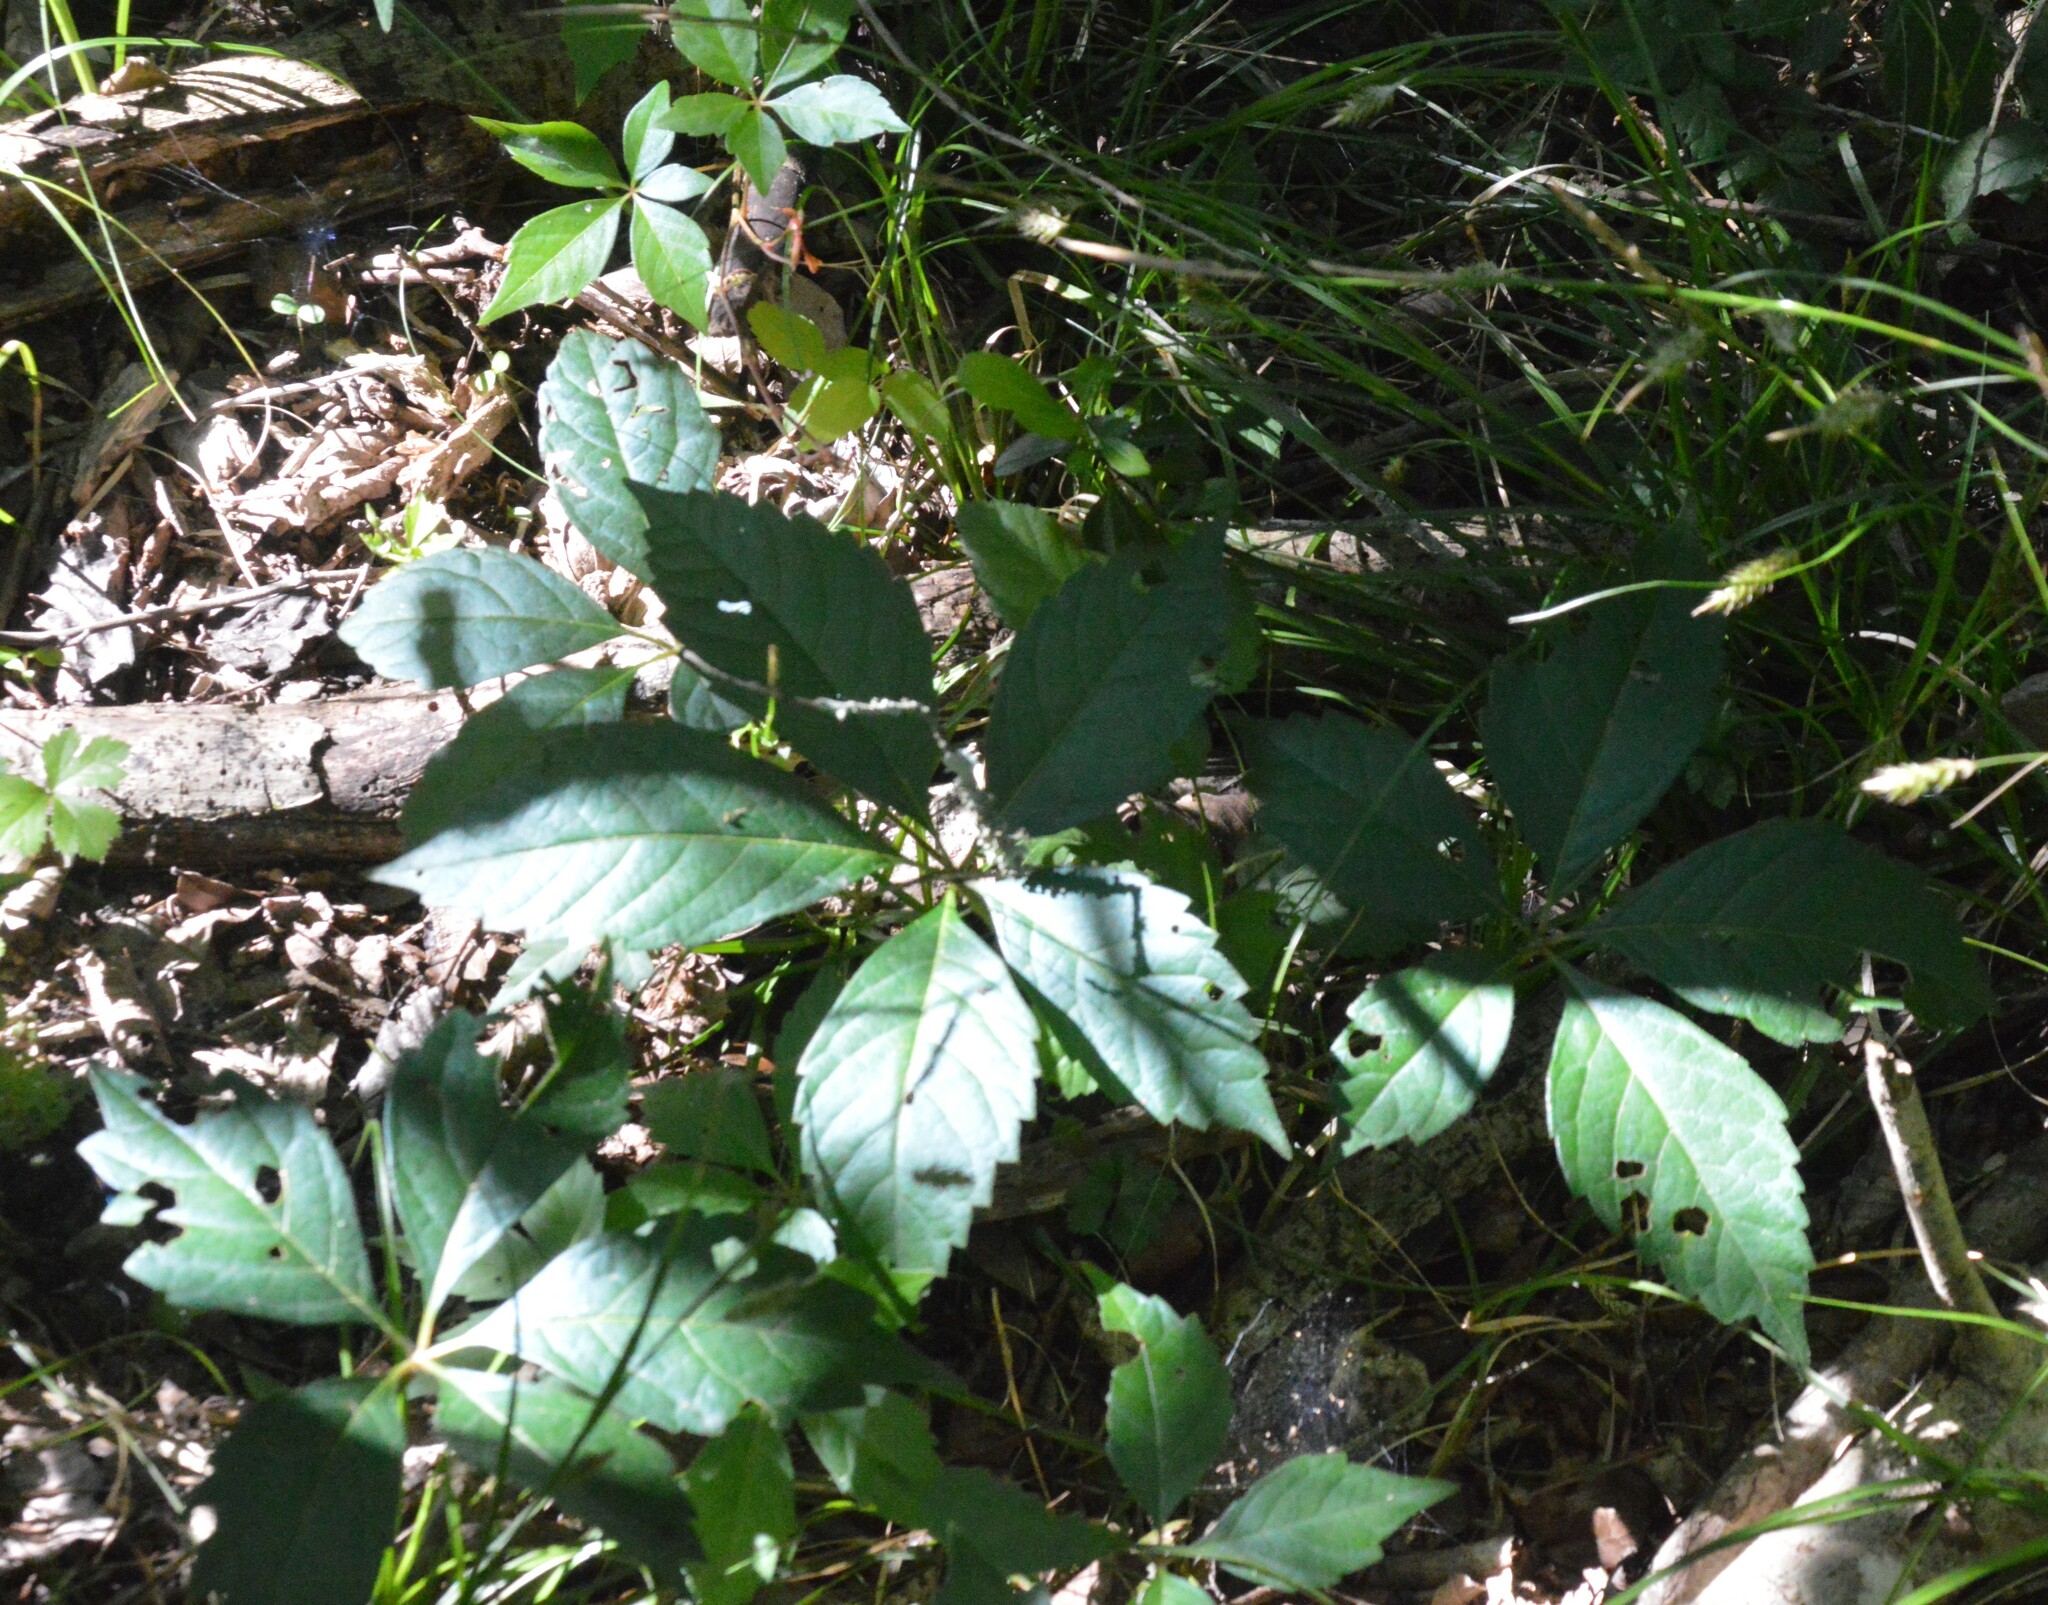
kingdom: Plantae
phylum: Tracheophyta
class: Magnoliopsida
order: Vitales
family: Vitaceae
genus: Parthenocissus
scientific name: Parthenocissus quinquefolia
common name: Virginia-creeper
